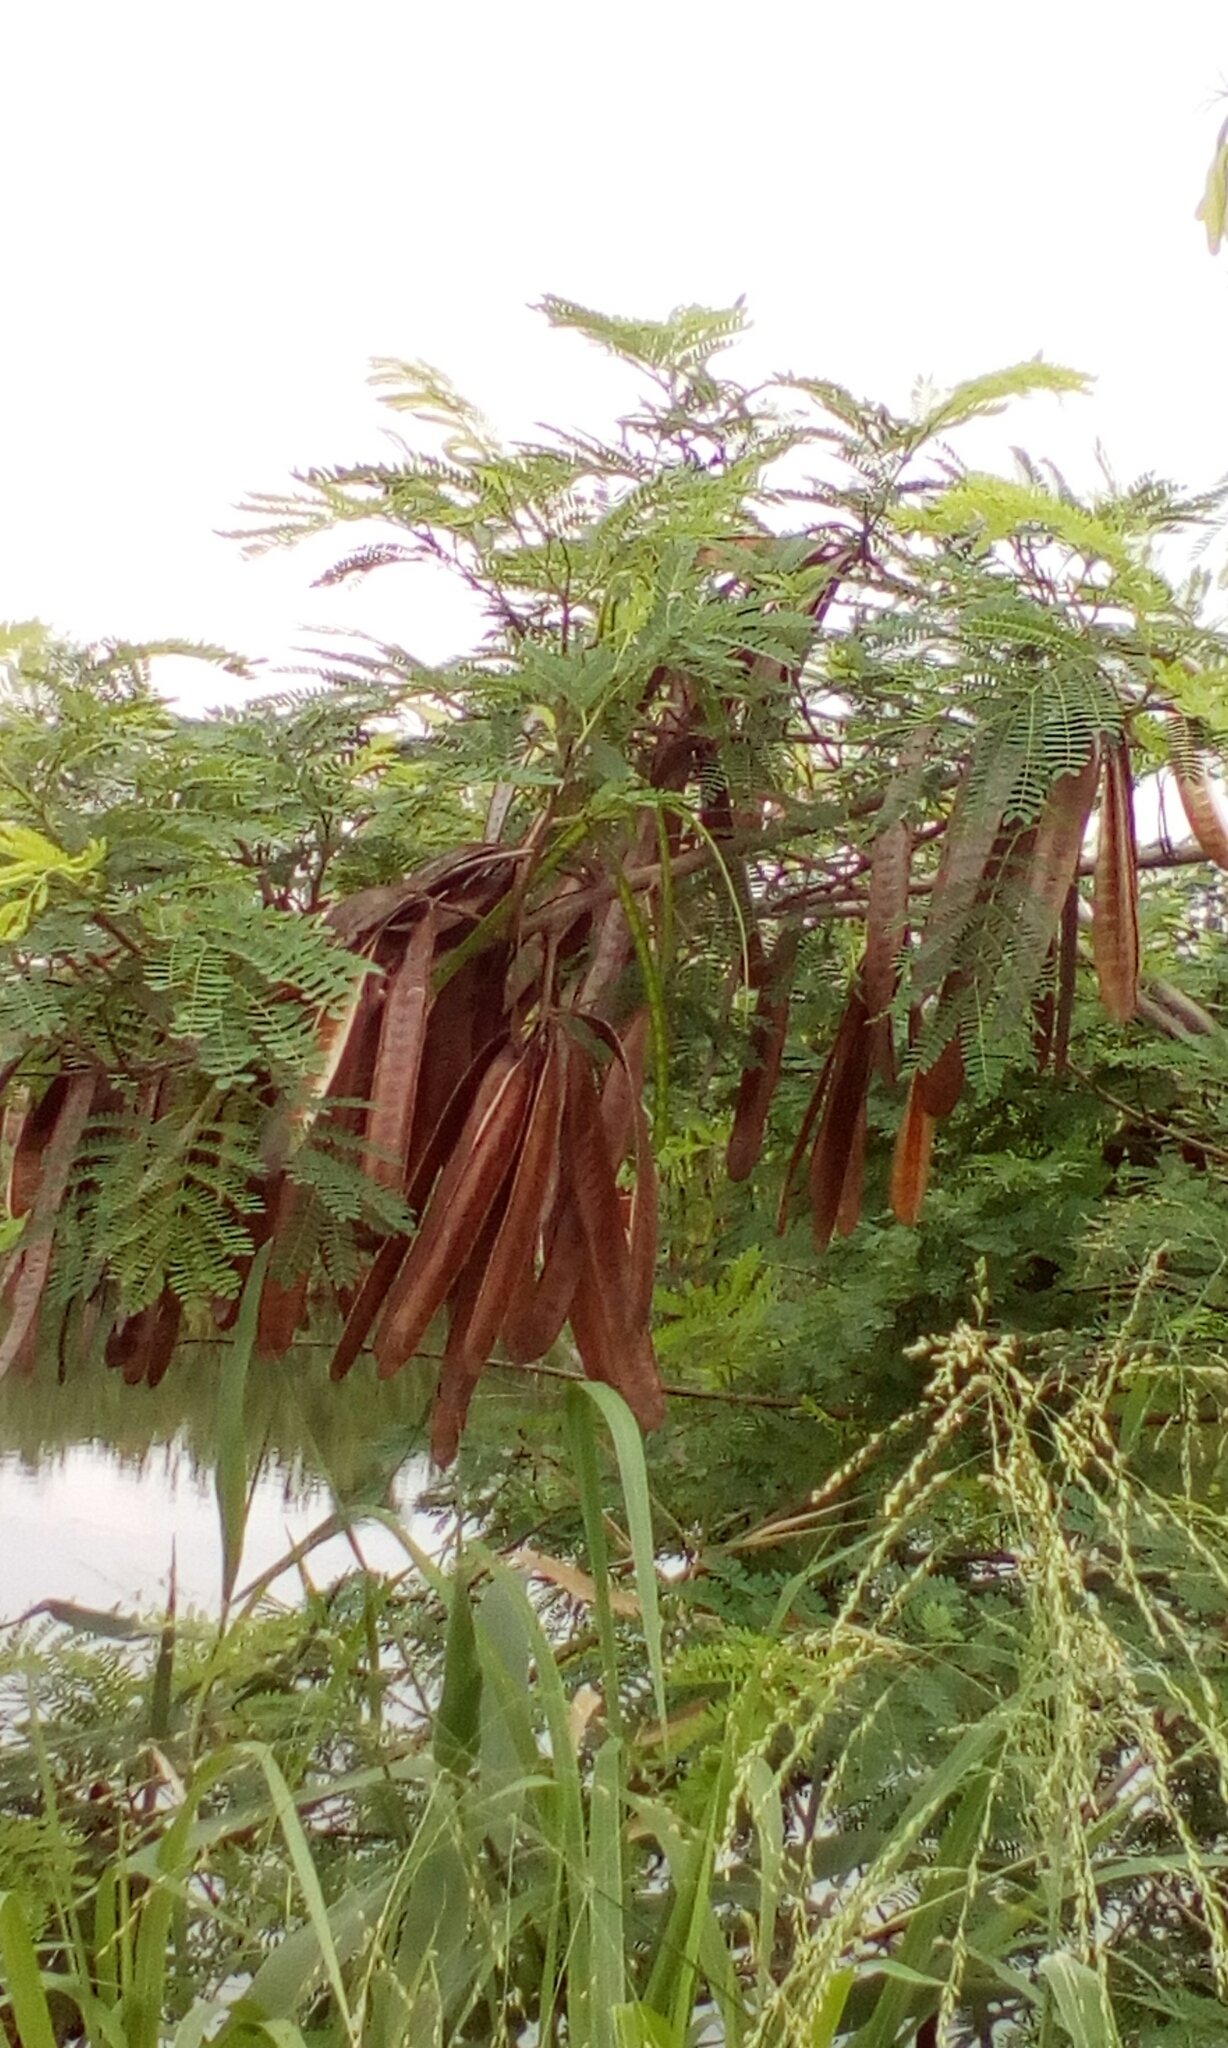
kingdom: Plantae
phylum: Tracheophyta
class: Magnoliopsida
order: Fabales
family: Fabaceae
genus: Leucaena
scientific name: Leucaena leucocephala
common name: White leadtree
